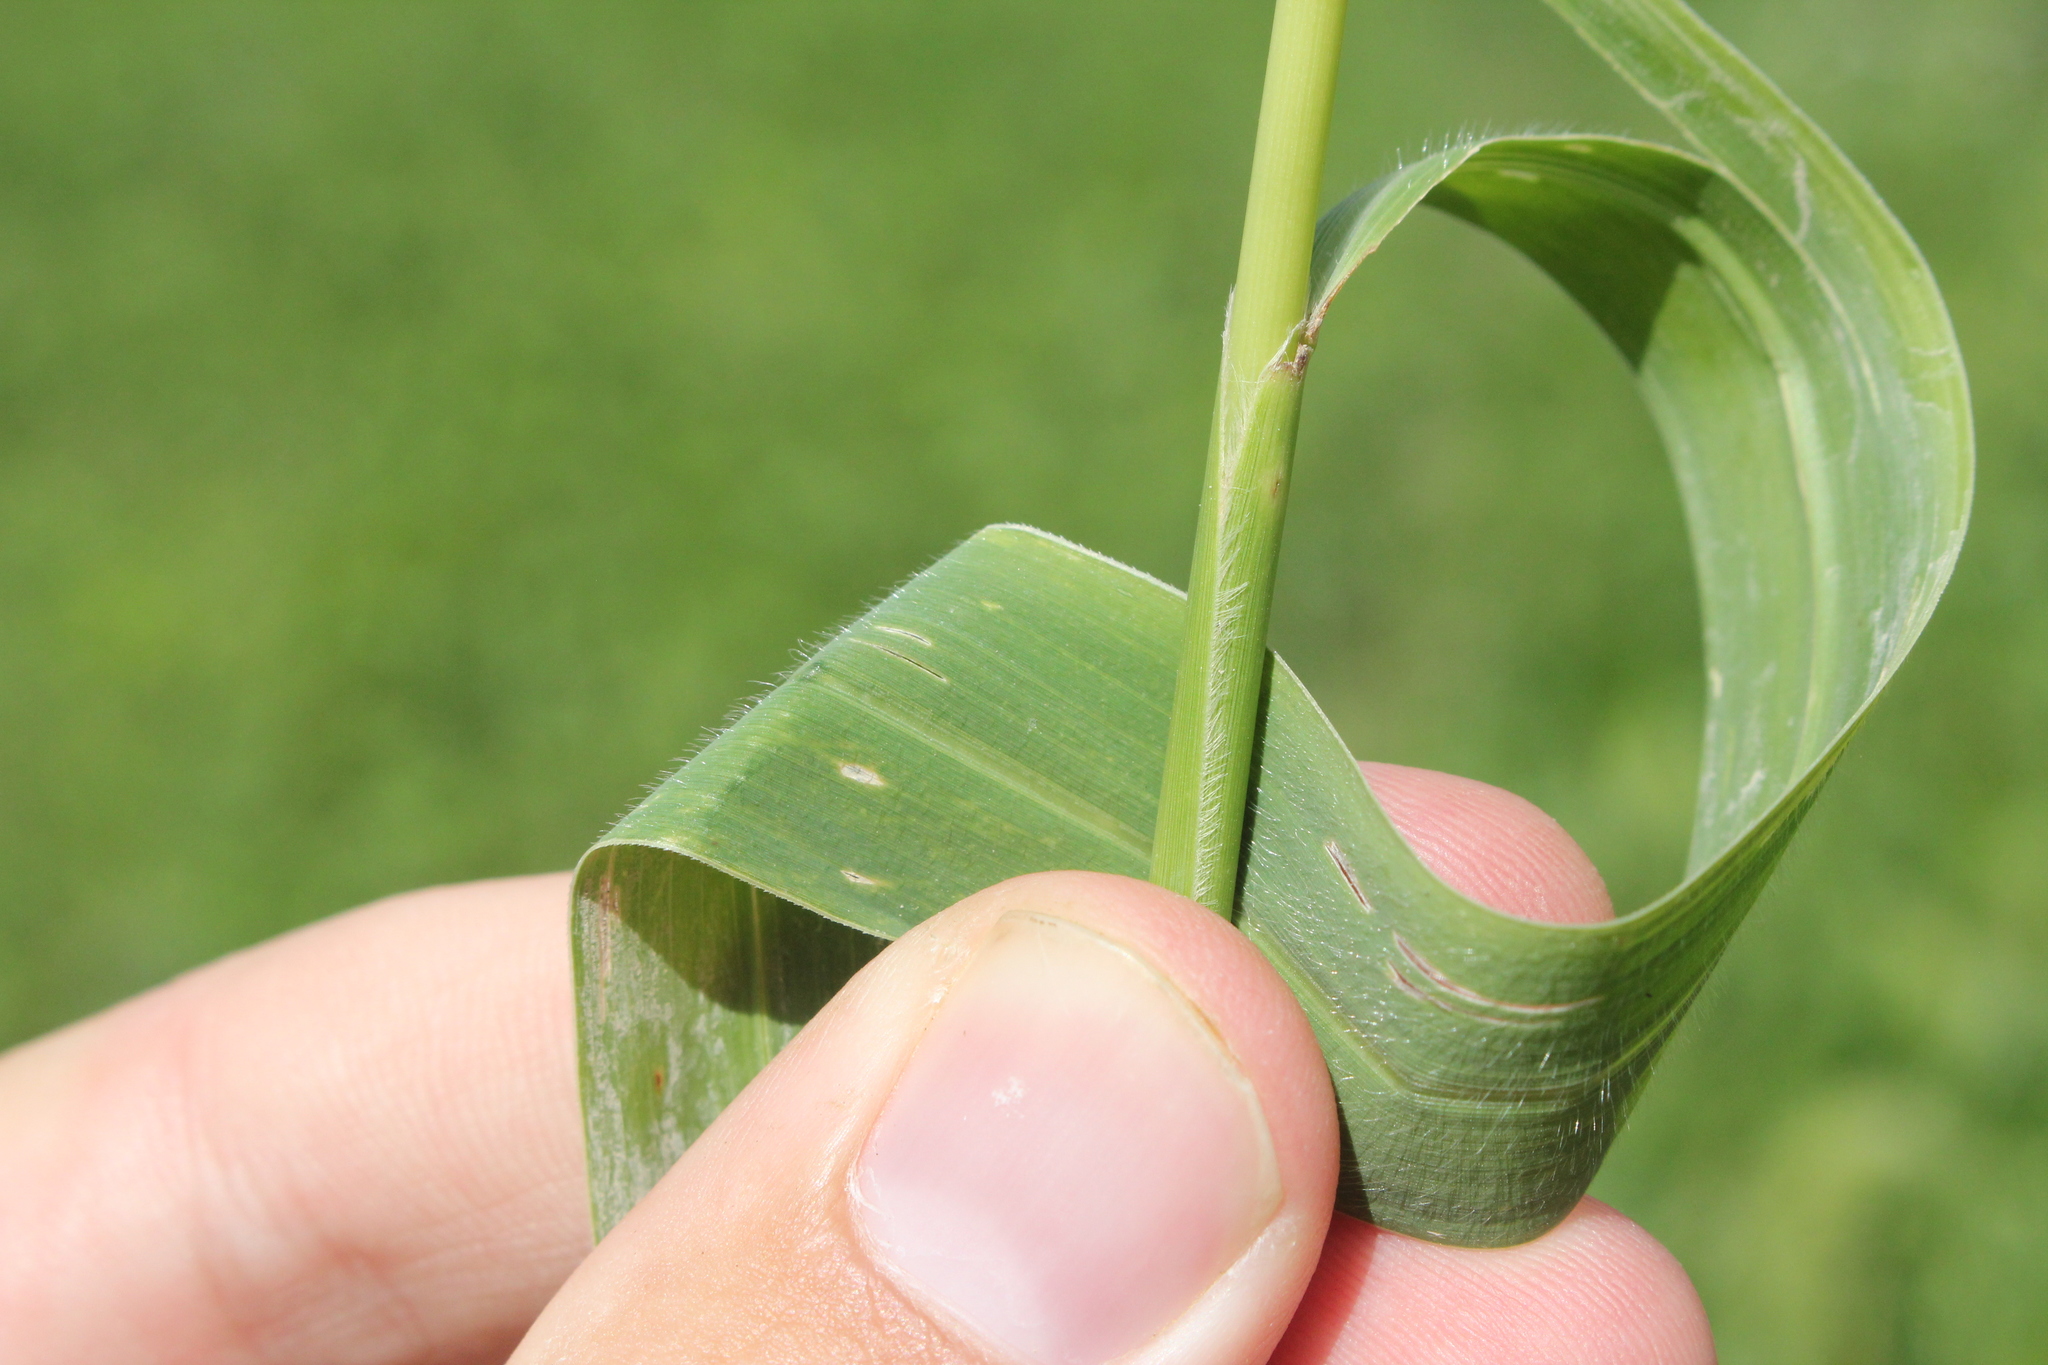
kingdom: Plantae
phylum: Tracheophyta
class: Liliopsida
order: Poales
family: Poaceae
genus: Setaria
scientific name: Setaria faberi
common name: Nodding bristle-grass
